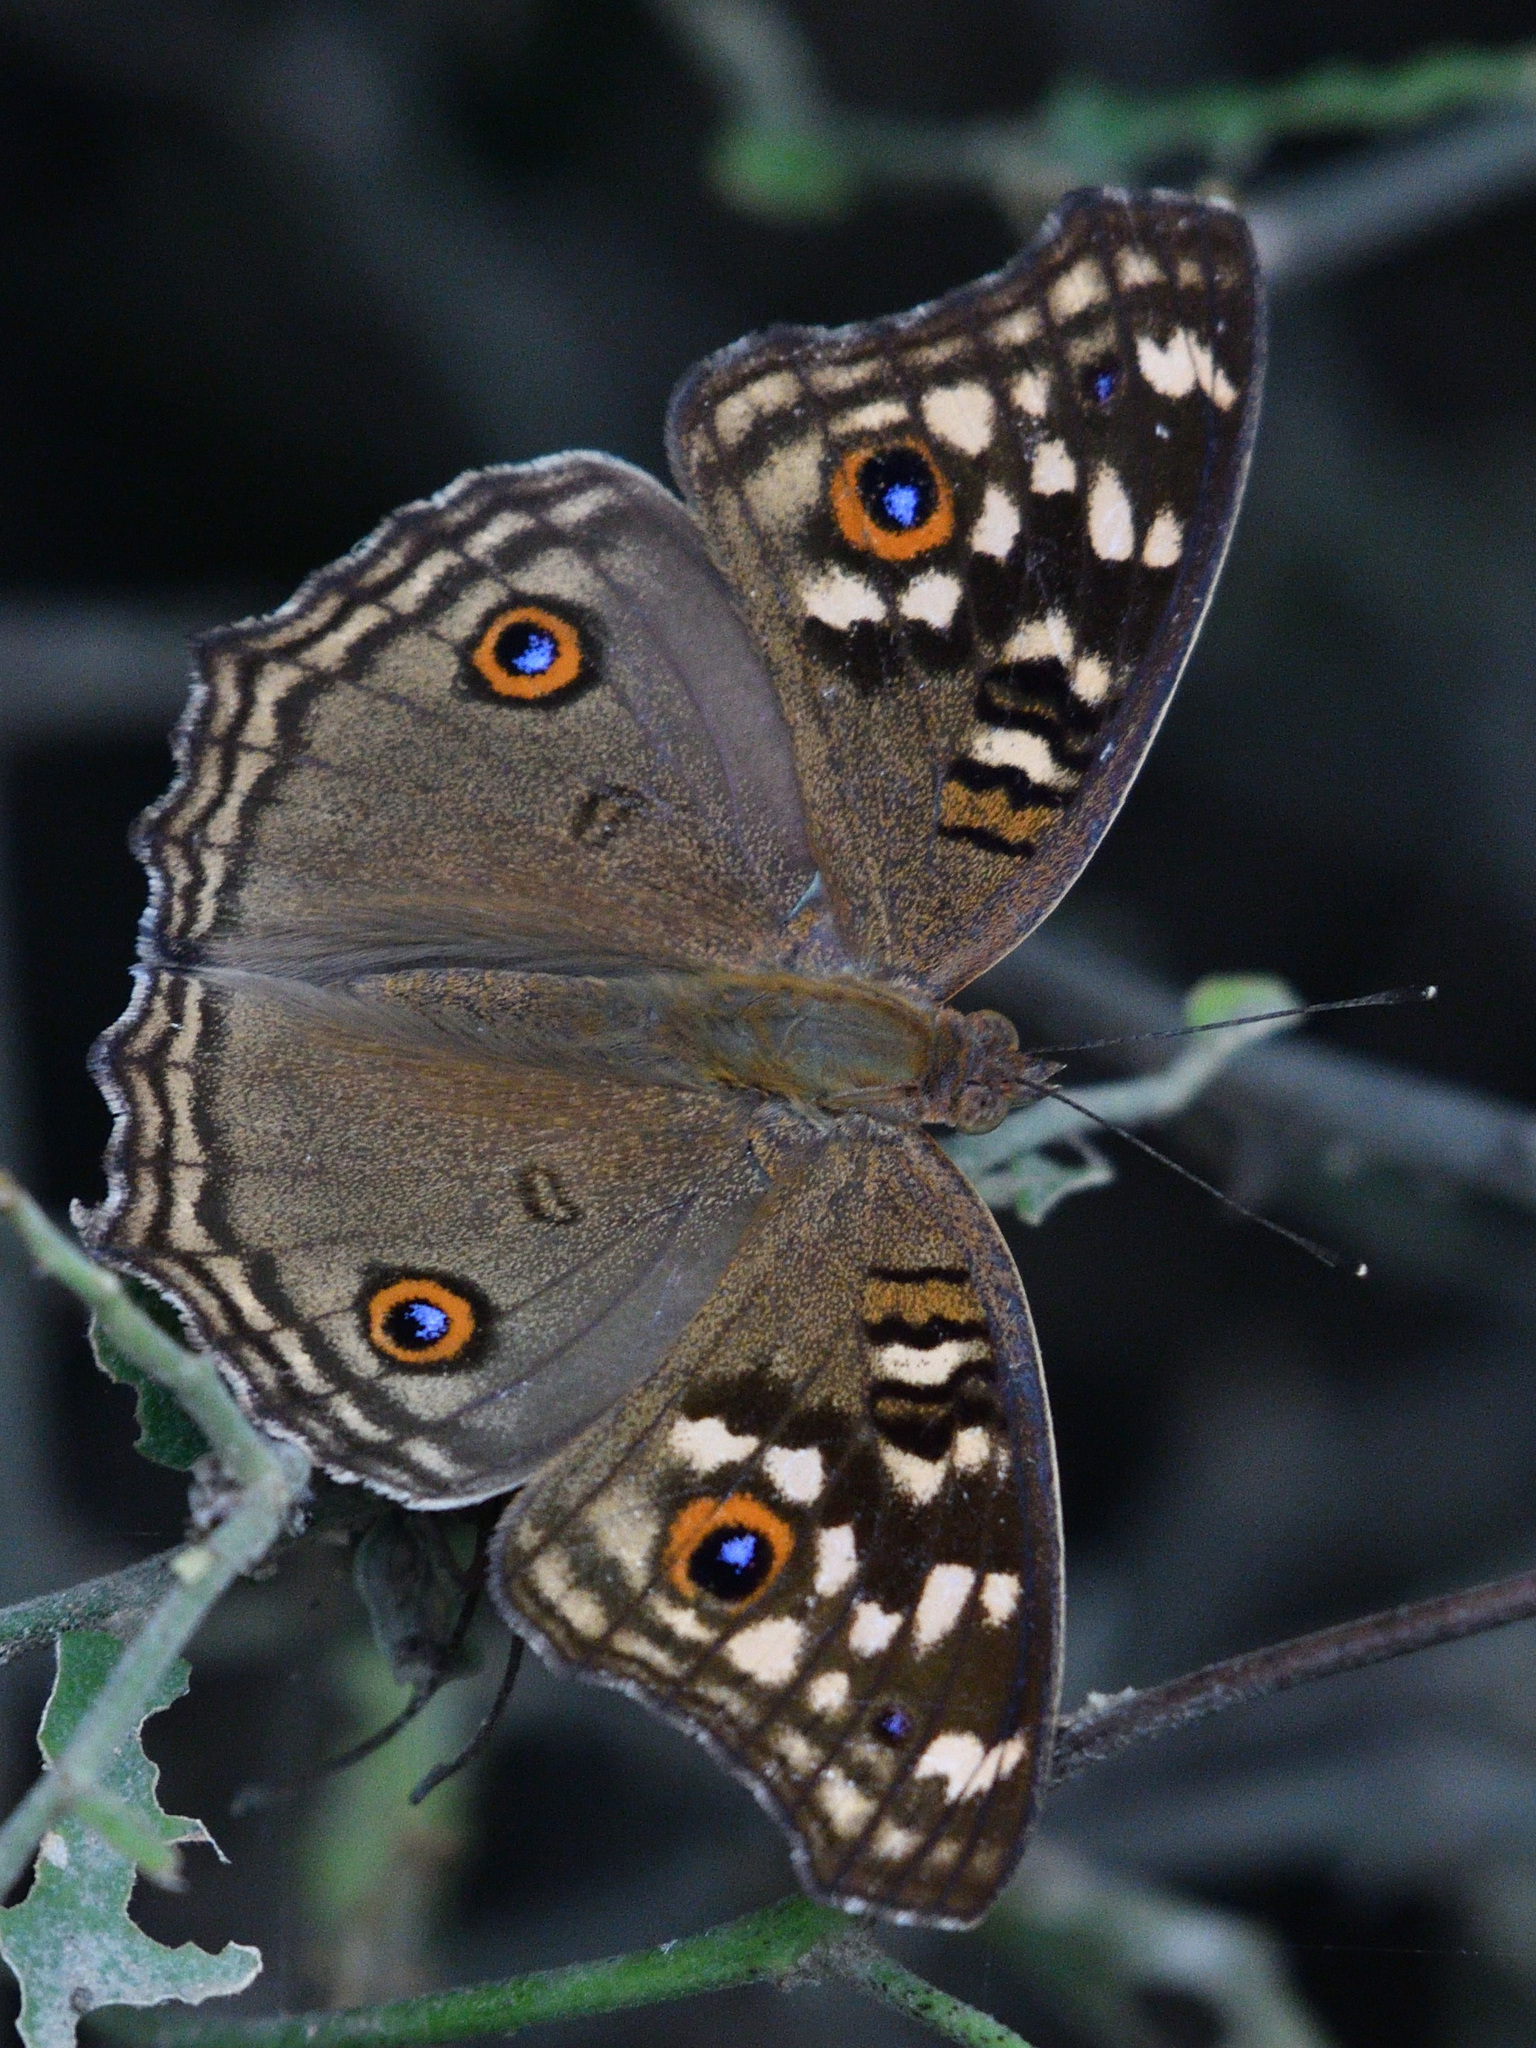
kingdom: Animalia
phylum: Arthropoda
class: Insecta
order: Lepidoptera
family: Nymphalidae
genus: Junonia
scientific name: Junonia lemonias
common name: Lemon pansy
